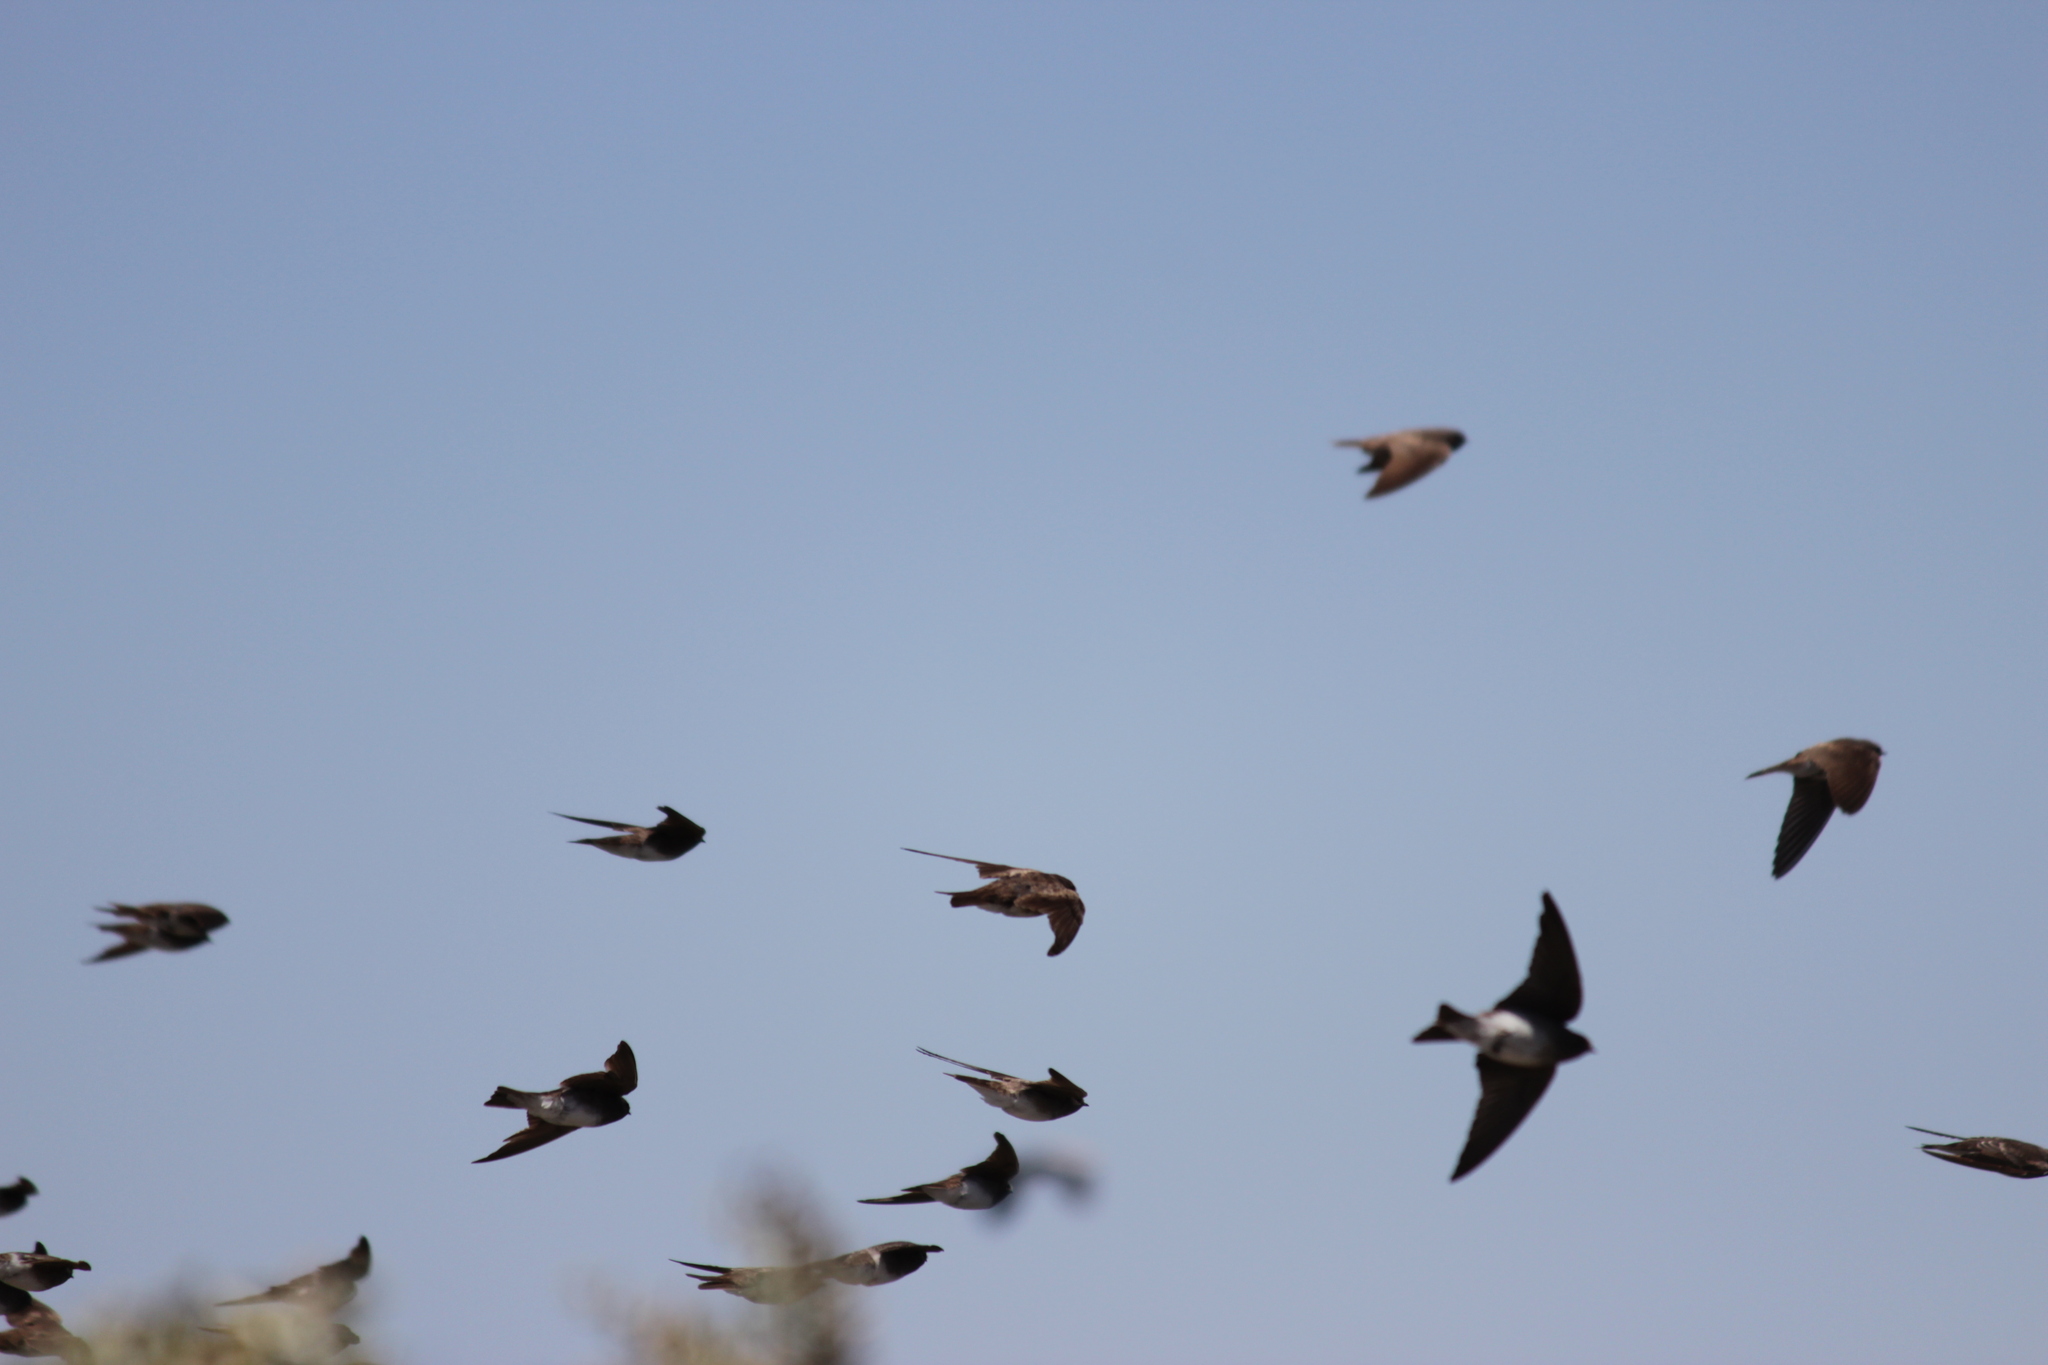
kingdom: Animalia
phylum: Chordata
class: Aves
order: Passeriformes
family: Hirundinidae
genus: Riparia
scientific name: Riparia paludicola
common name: Brown-throated martin
